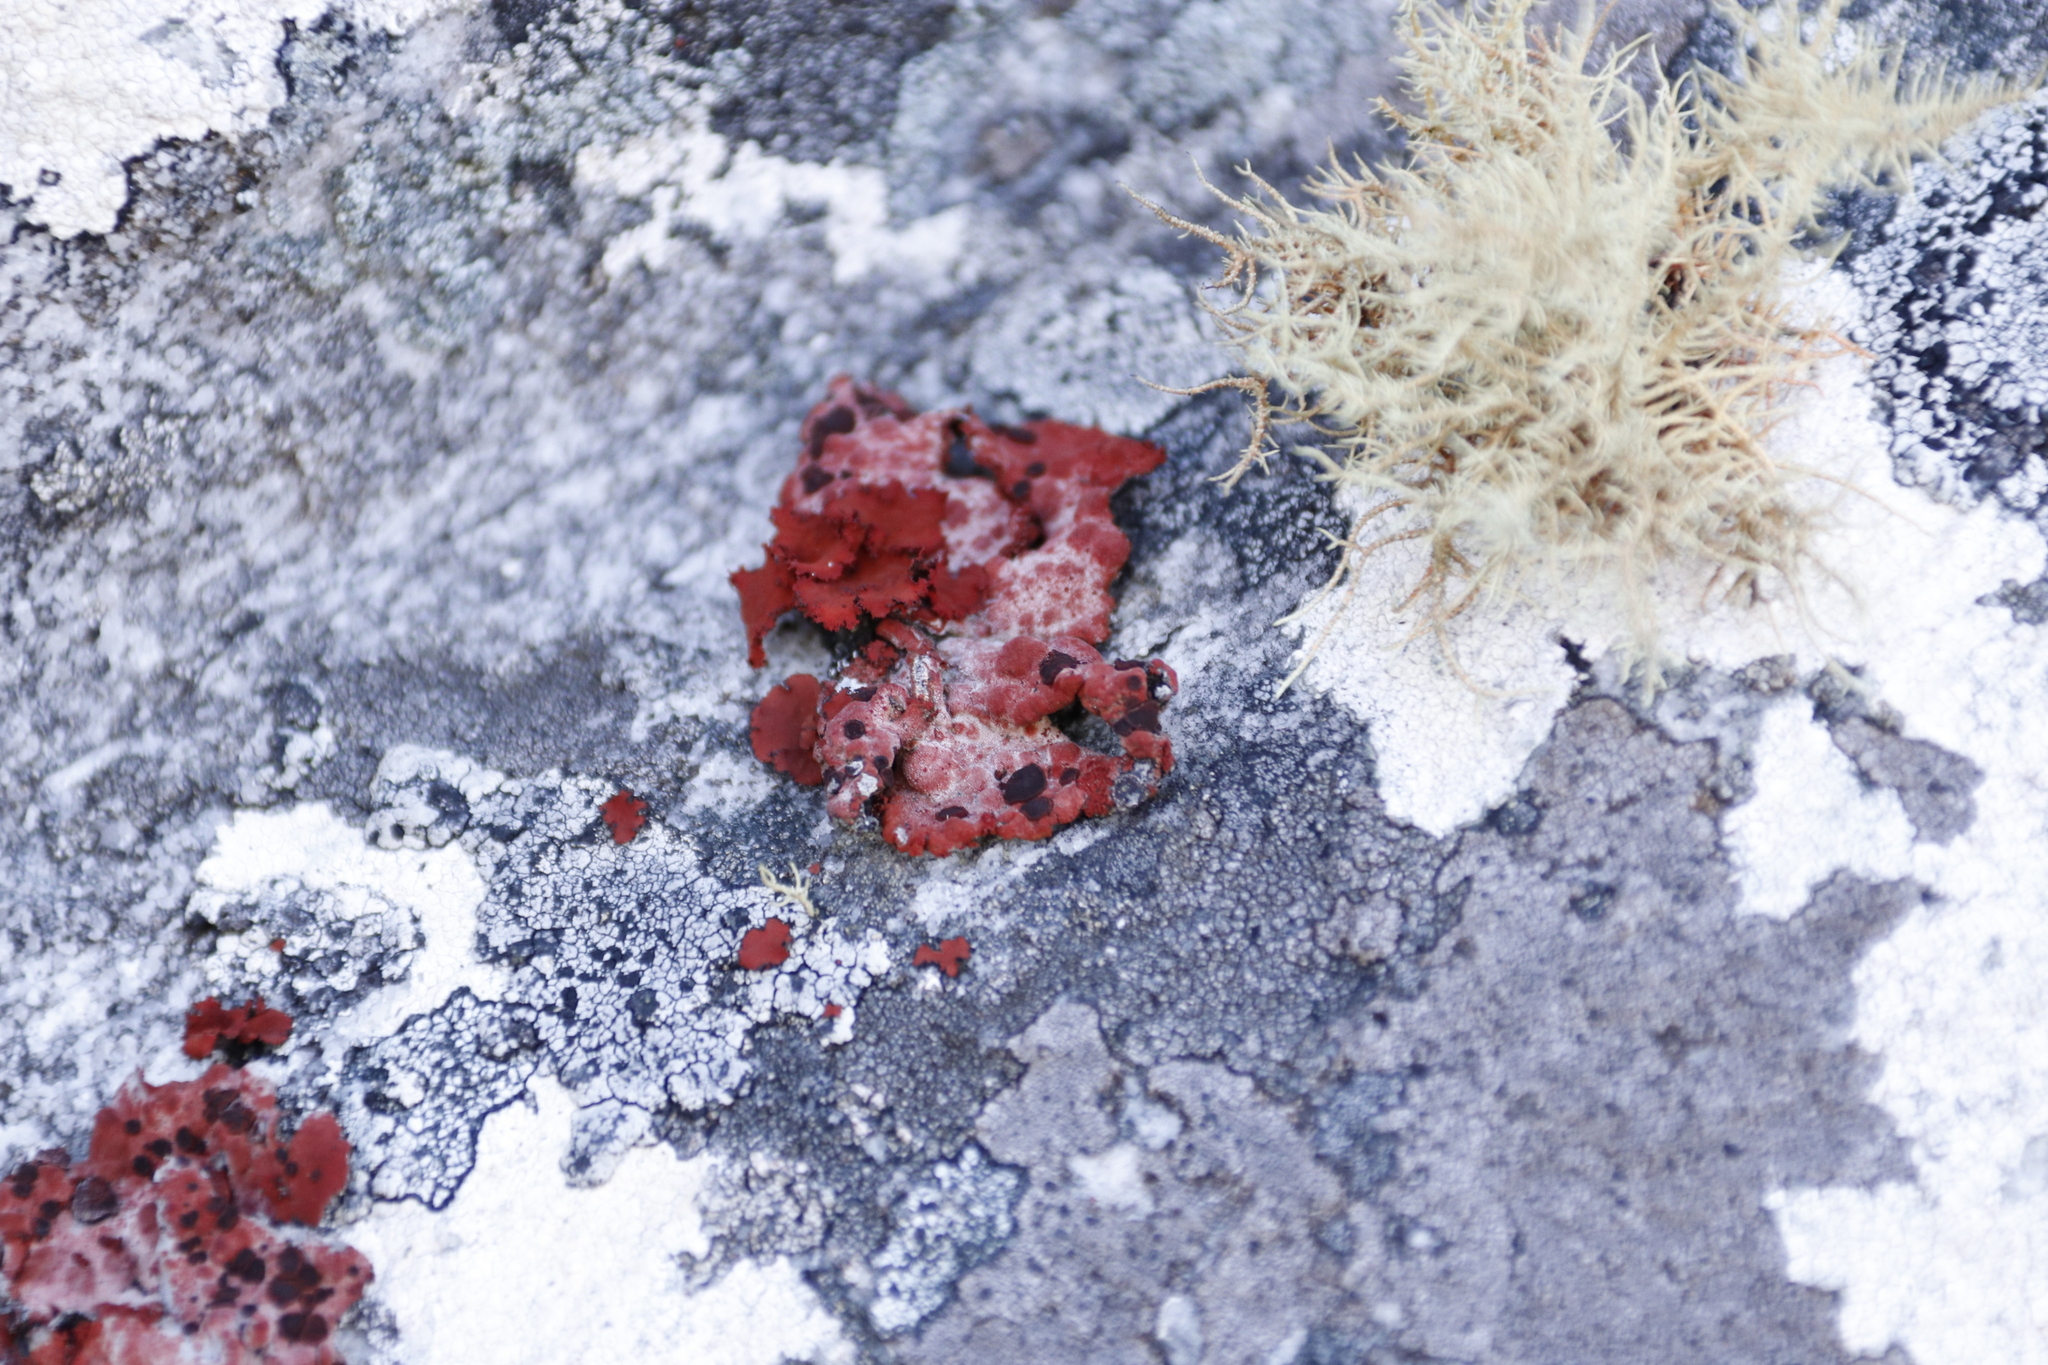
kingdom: Fungi
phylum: Ascomycota
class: Lecanoromycetes
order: Umbilicariales
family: Umbilicariaceae
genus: Lasallia
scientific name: Lasallia rubiginosa
